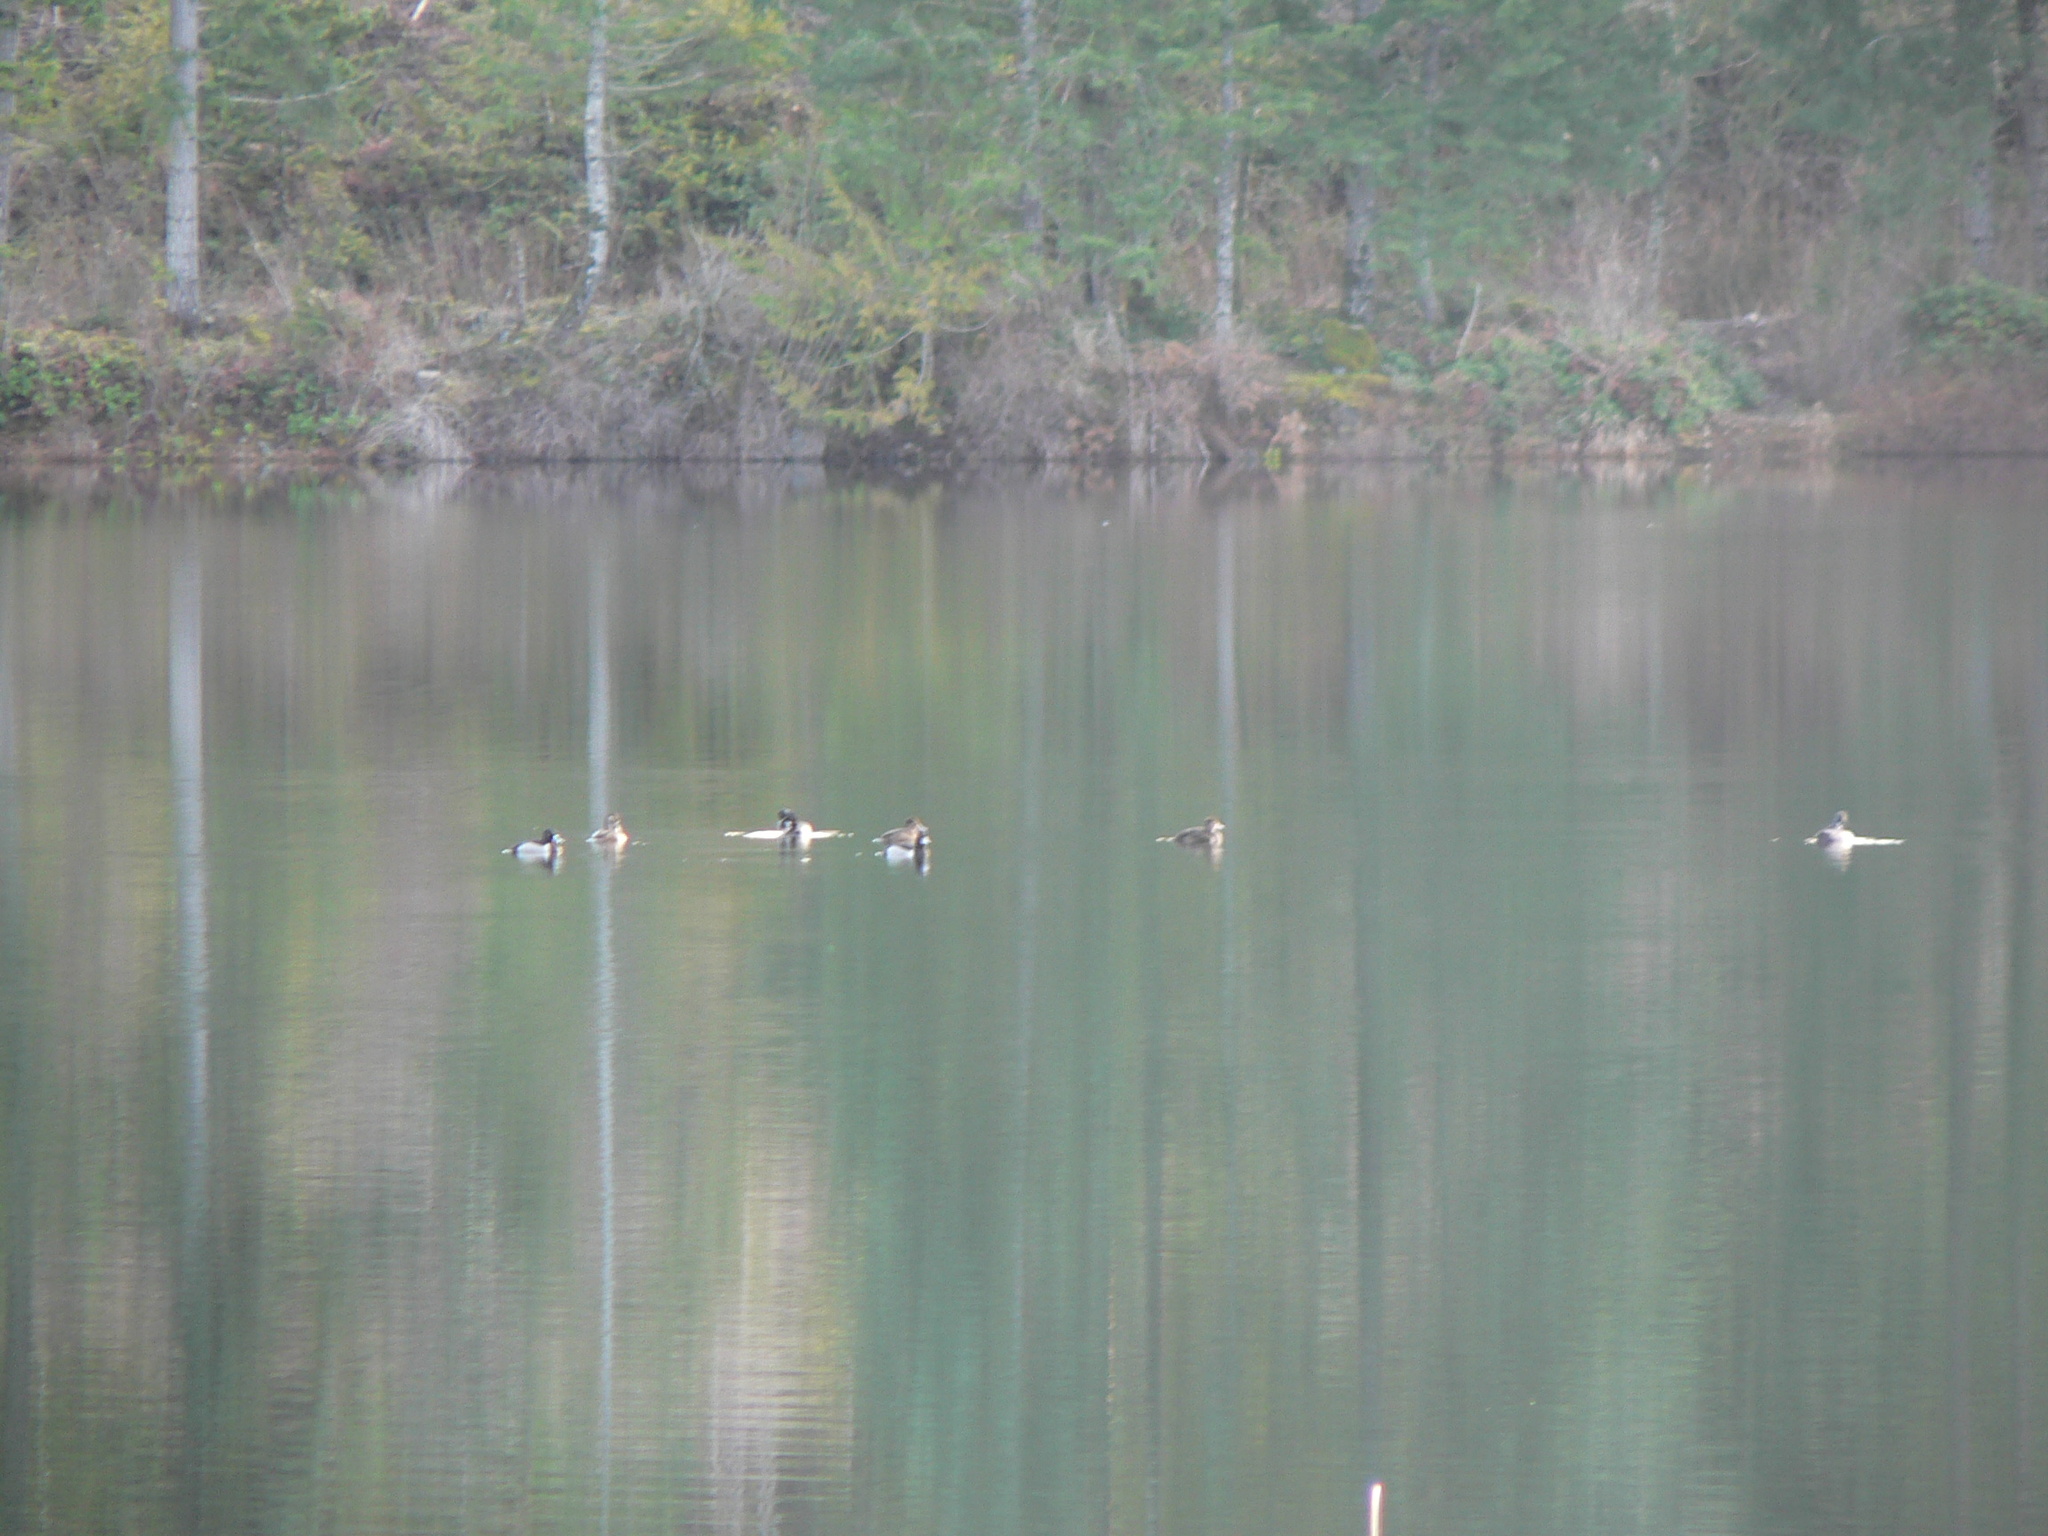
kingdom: Animalia
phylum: Chordata
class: Aves
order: Anseriformes
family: Anatidae
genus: Aythya
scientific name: Aythya collaris
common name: Ring-necked duck
